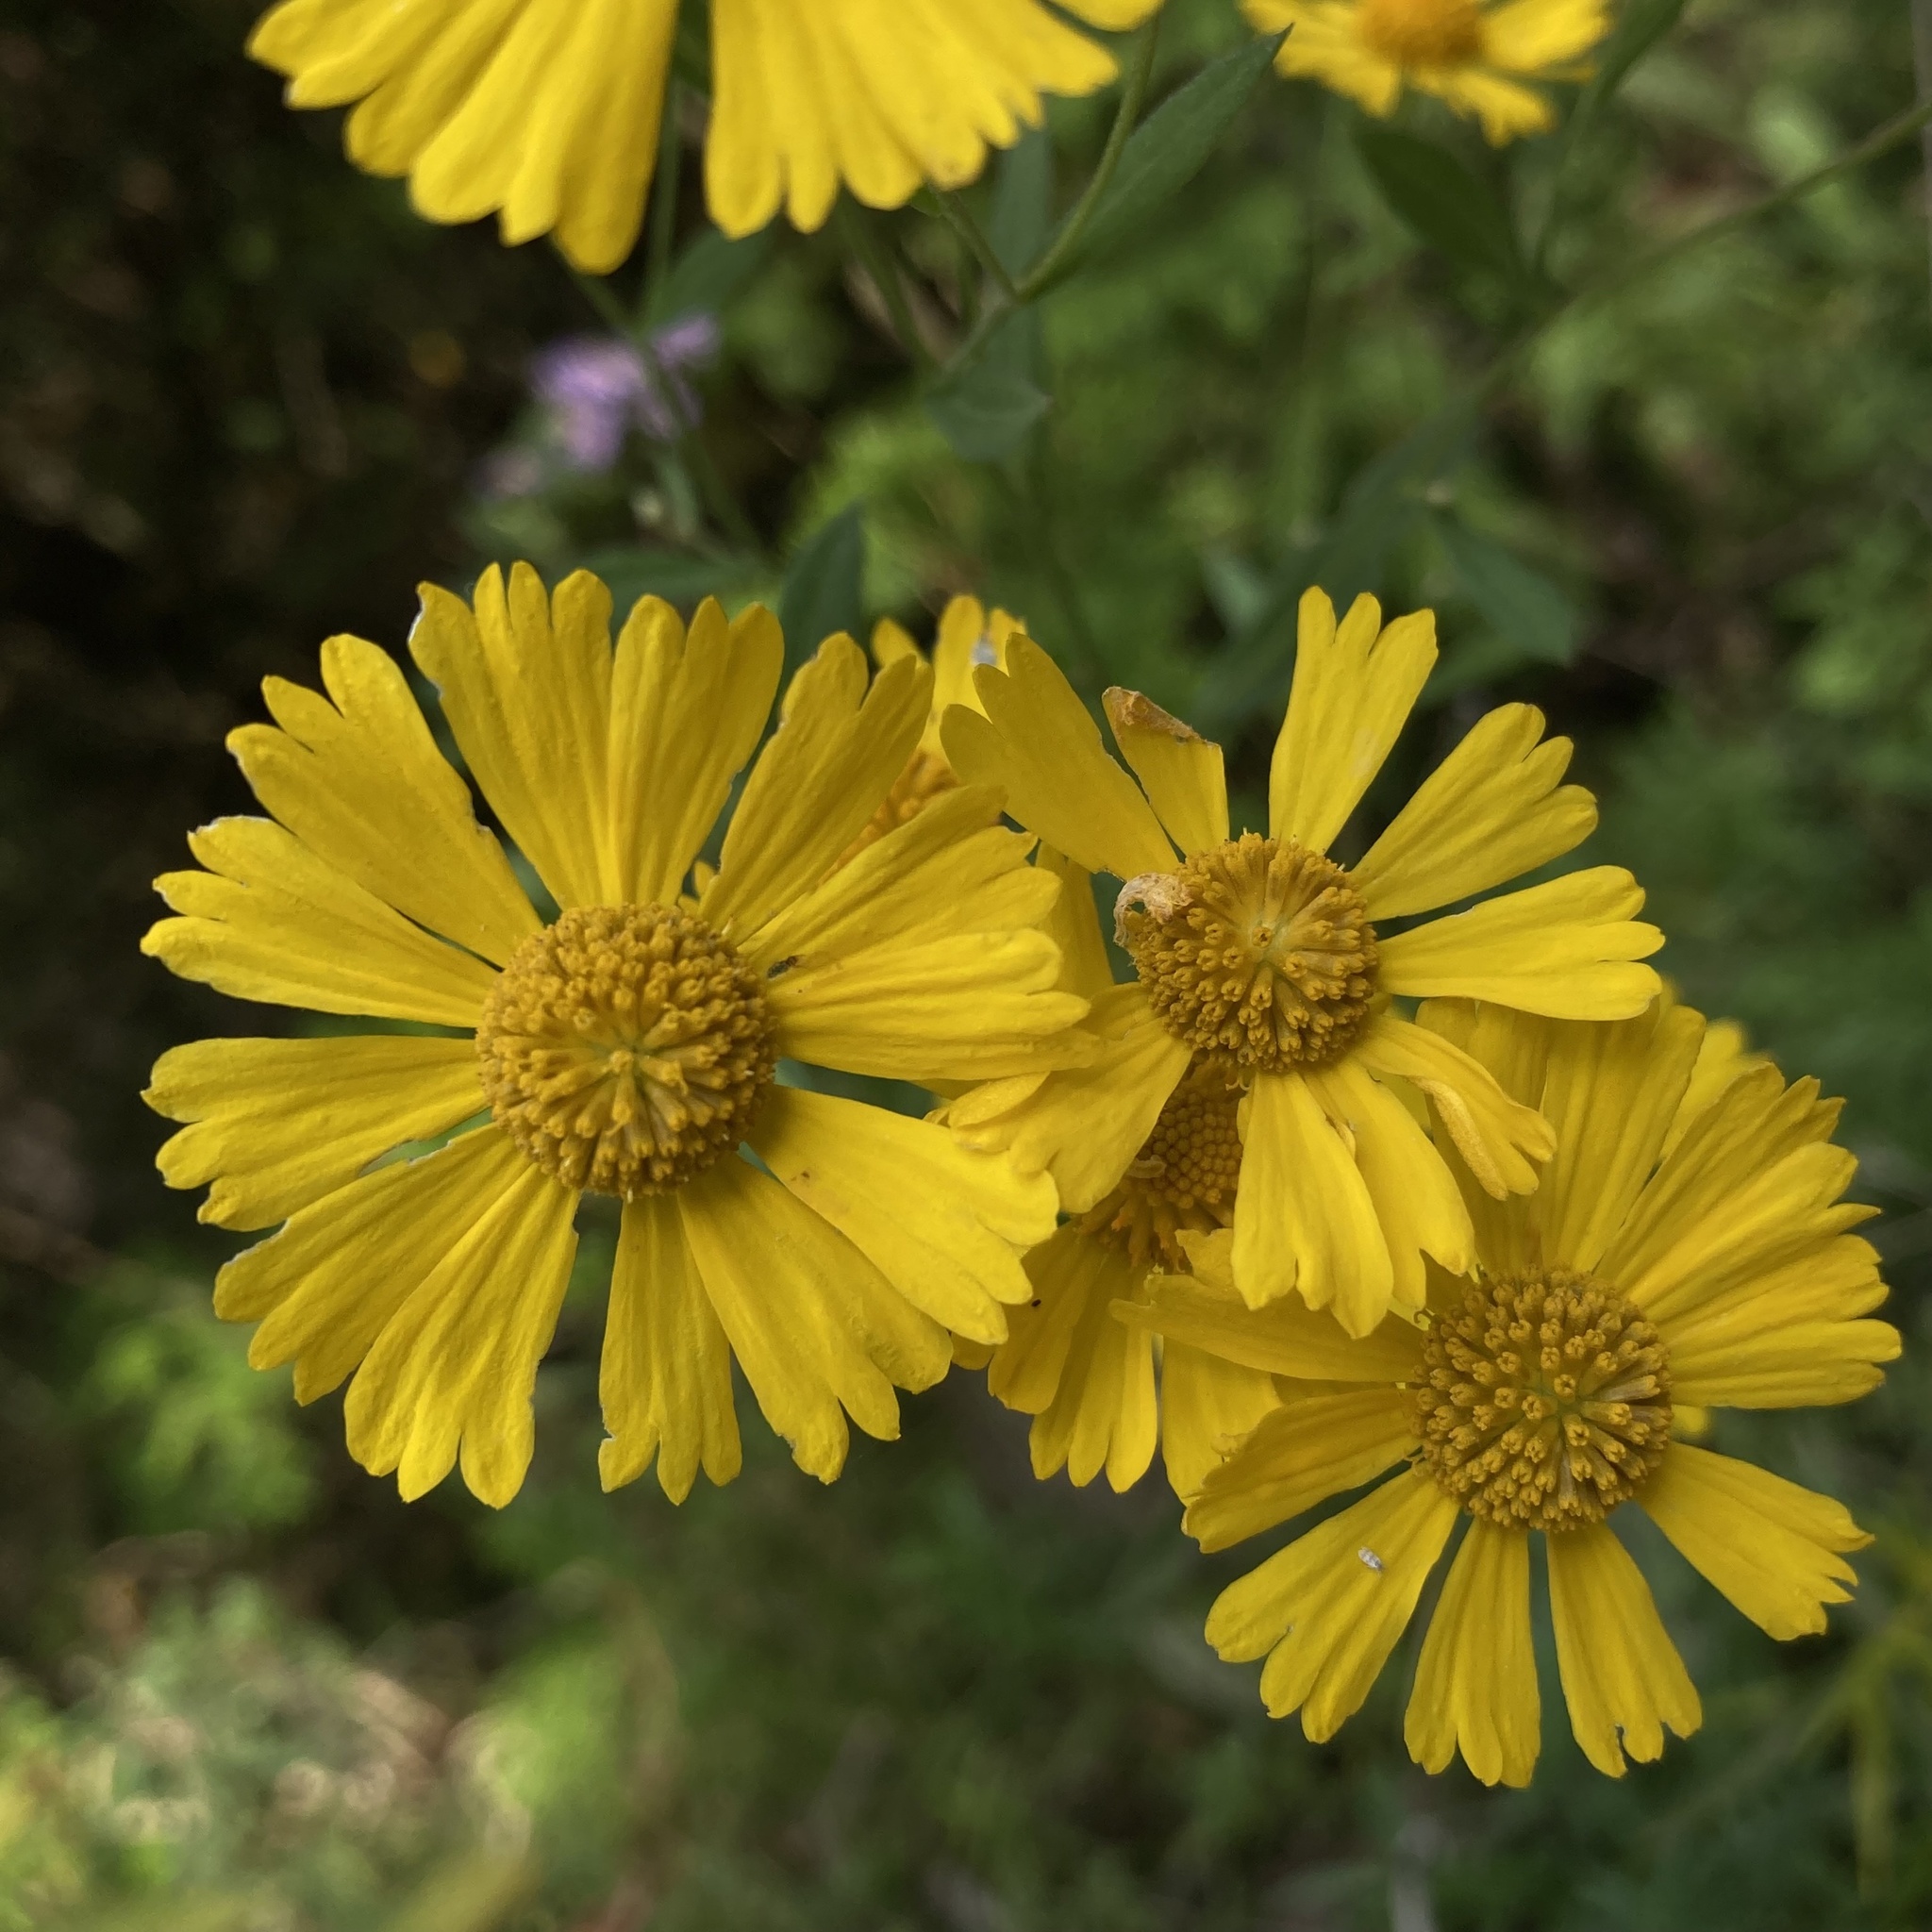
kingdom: Plantae
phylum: Tracheophyta
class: Magnoliopsida
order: Asterales
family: Asteraceae
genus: Helenium
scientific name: Helenium autumnale
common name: Sneezeweed
